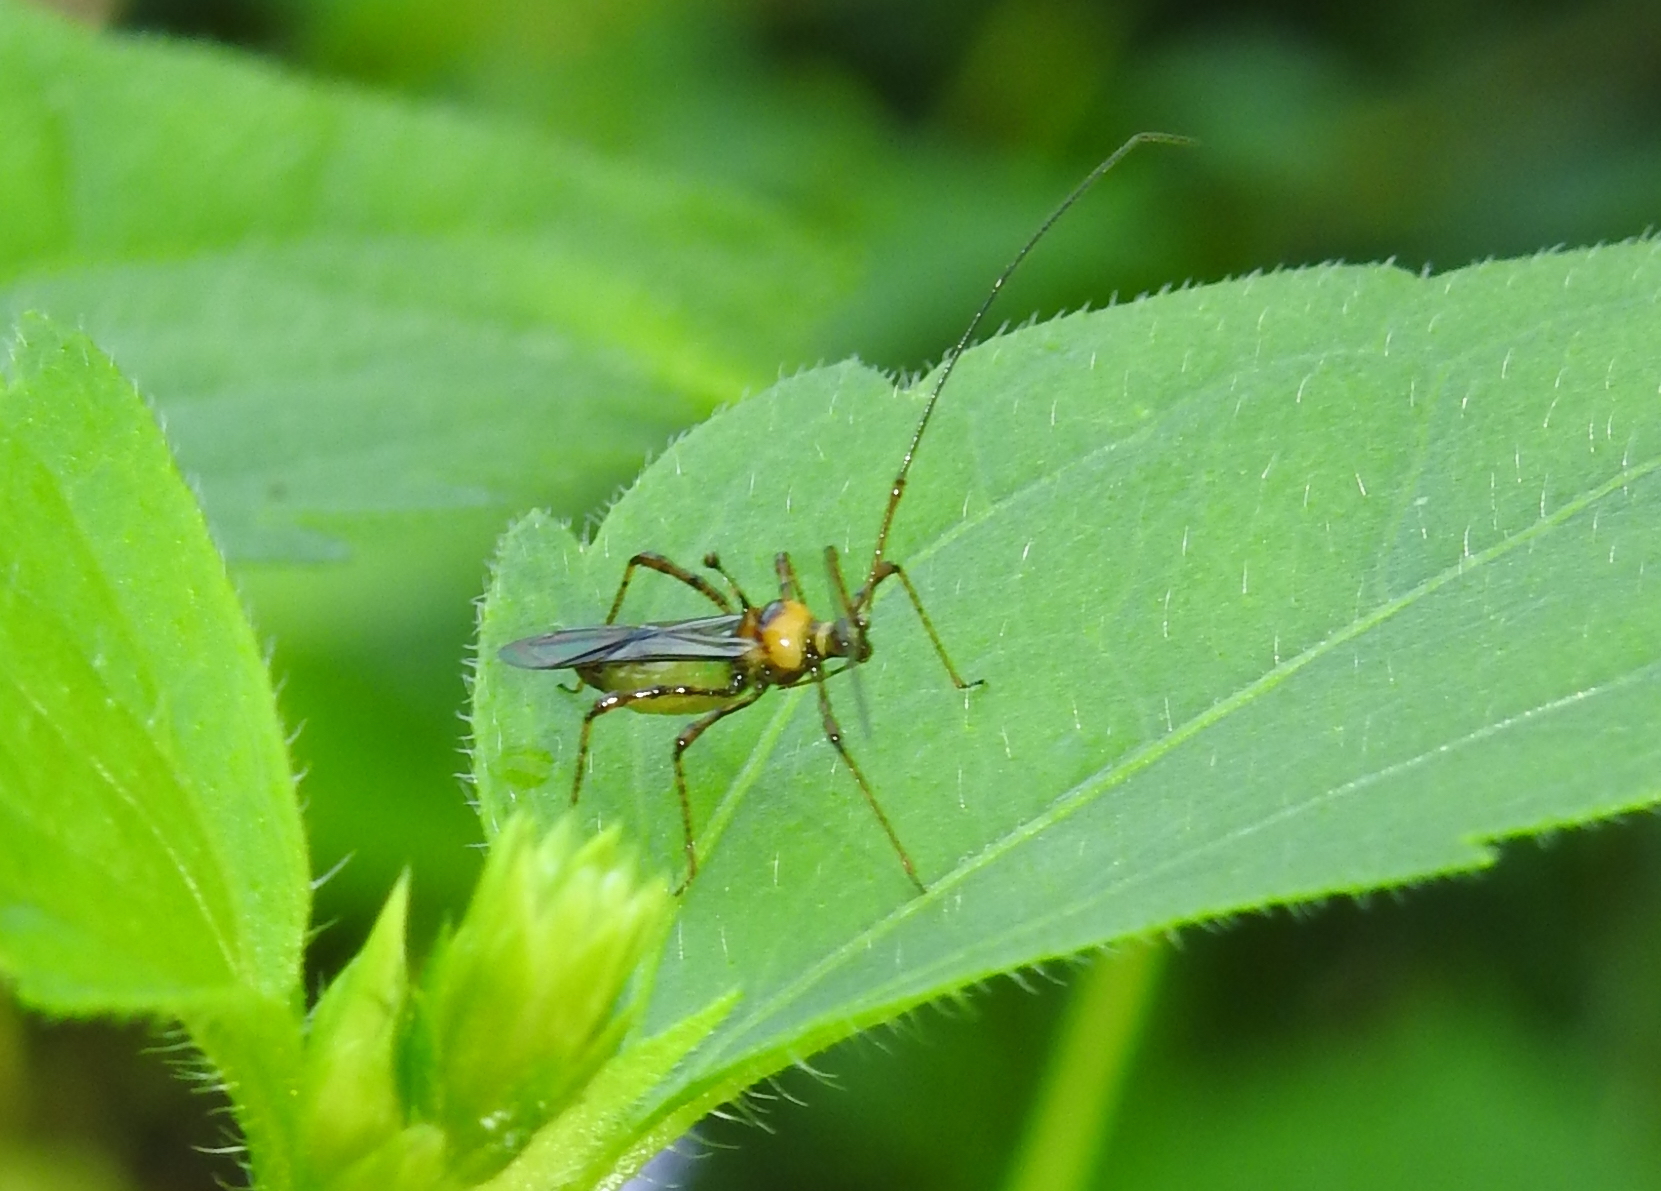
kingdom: Animalia
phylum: Arthropoda
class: Insecta
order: Hemiptera
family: Miridae
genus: Helopeltis
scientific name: Helopeltis theivora
